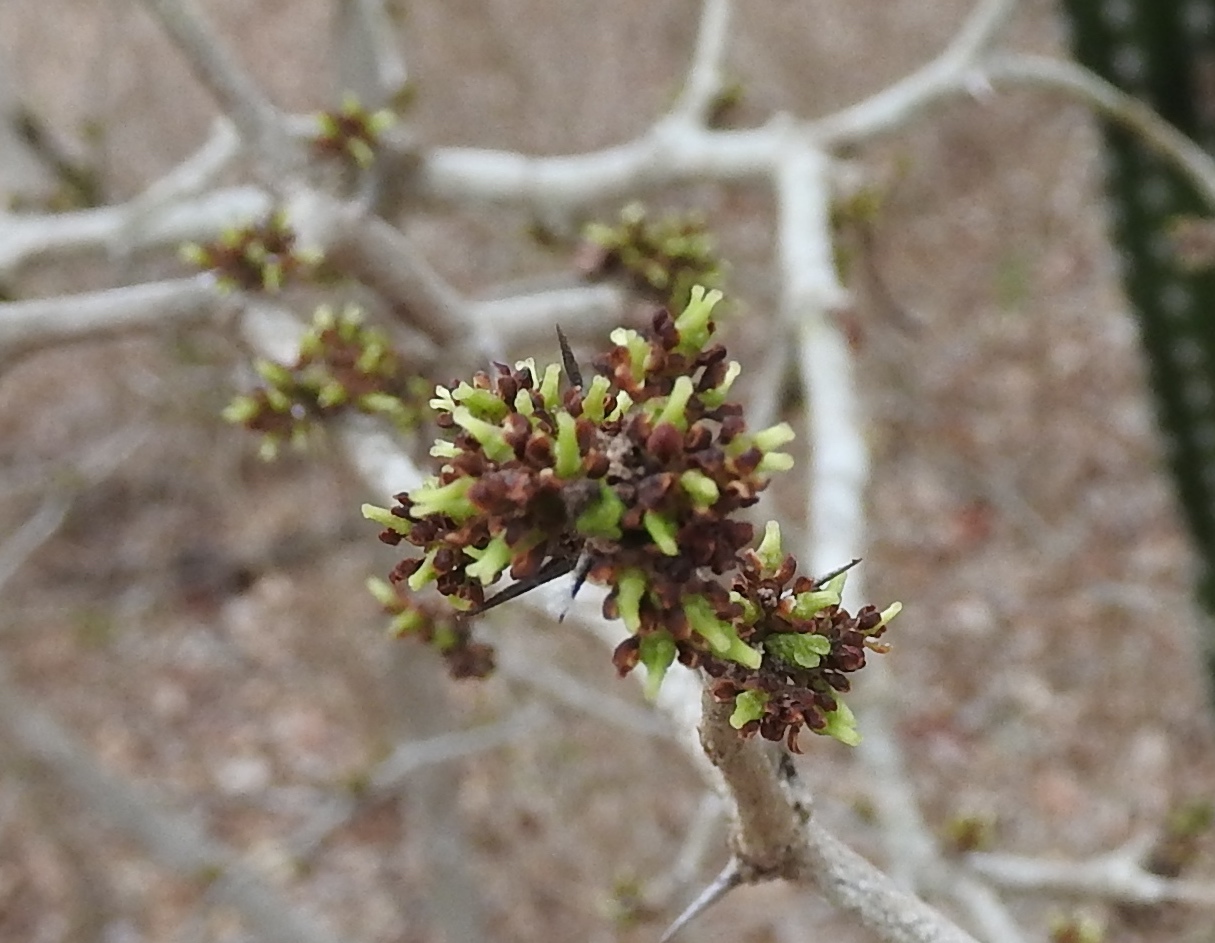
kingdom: Plantae
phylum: Tracheophyta
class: Magnoliopsida
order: Sapindales
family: Rutaceae
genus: Zanthoxylum
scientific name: Zanthoxylum fagara
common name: Lime prickly-ash
